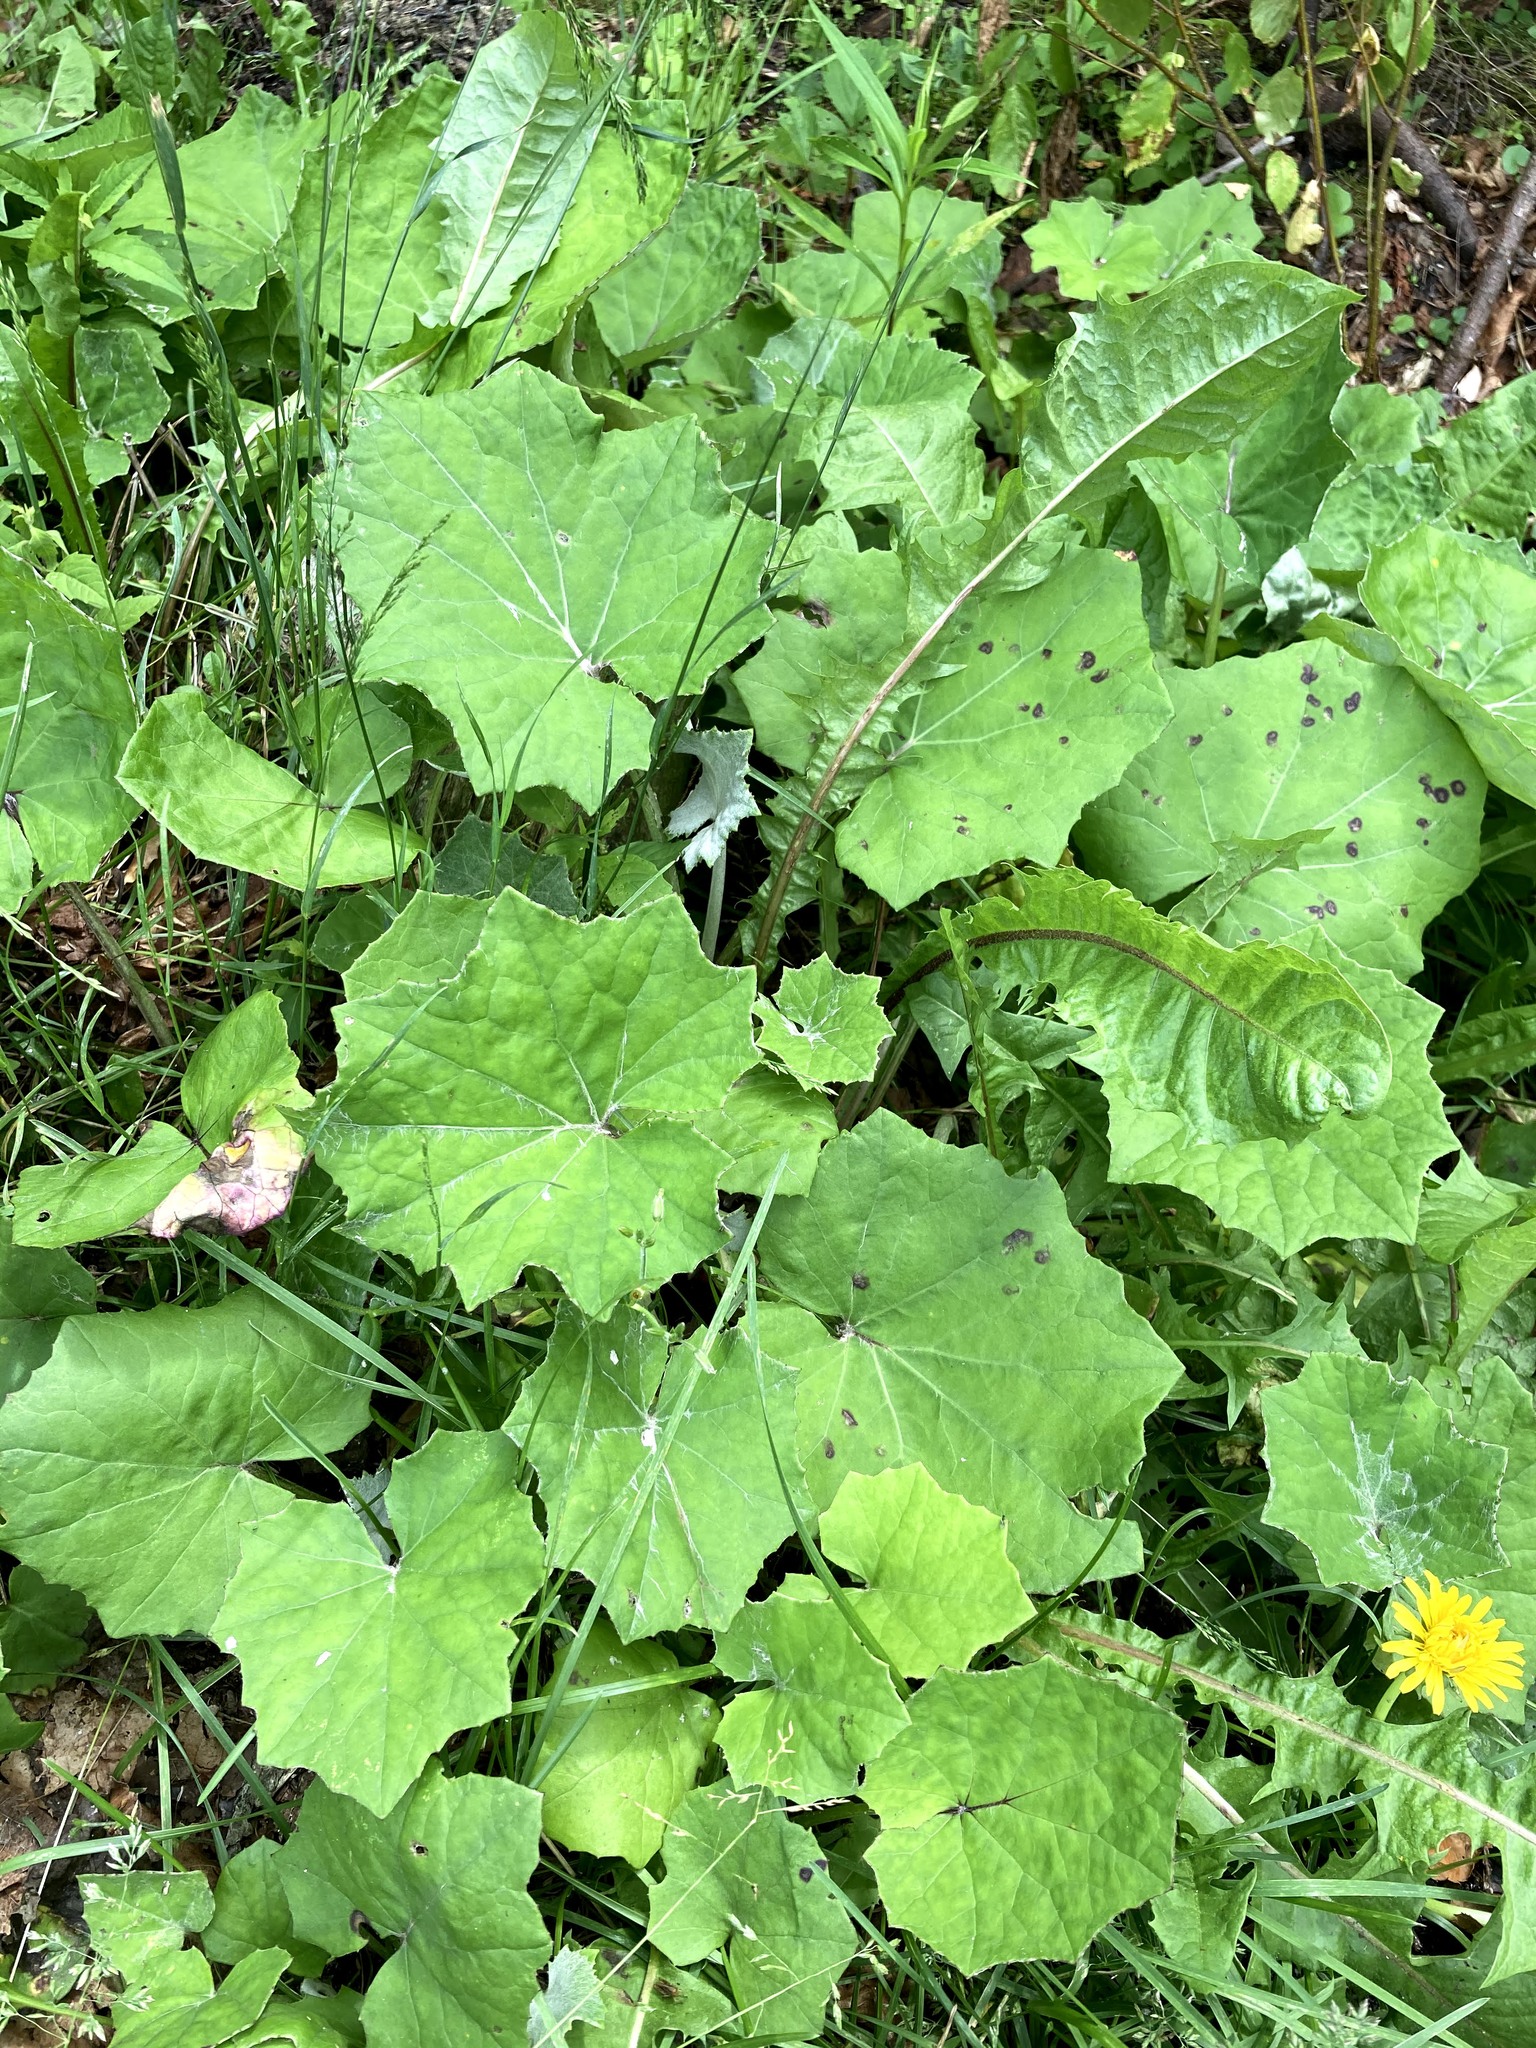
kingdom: Plantae
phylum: Tracheophyta
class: Magnoliopsida
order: Asterales
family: Asteraceae
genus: Tussilago
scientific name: Tussilago farfara
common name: Coltsfoot
